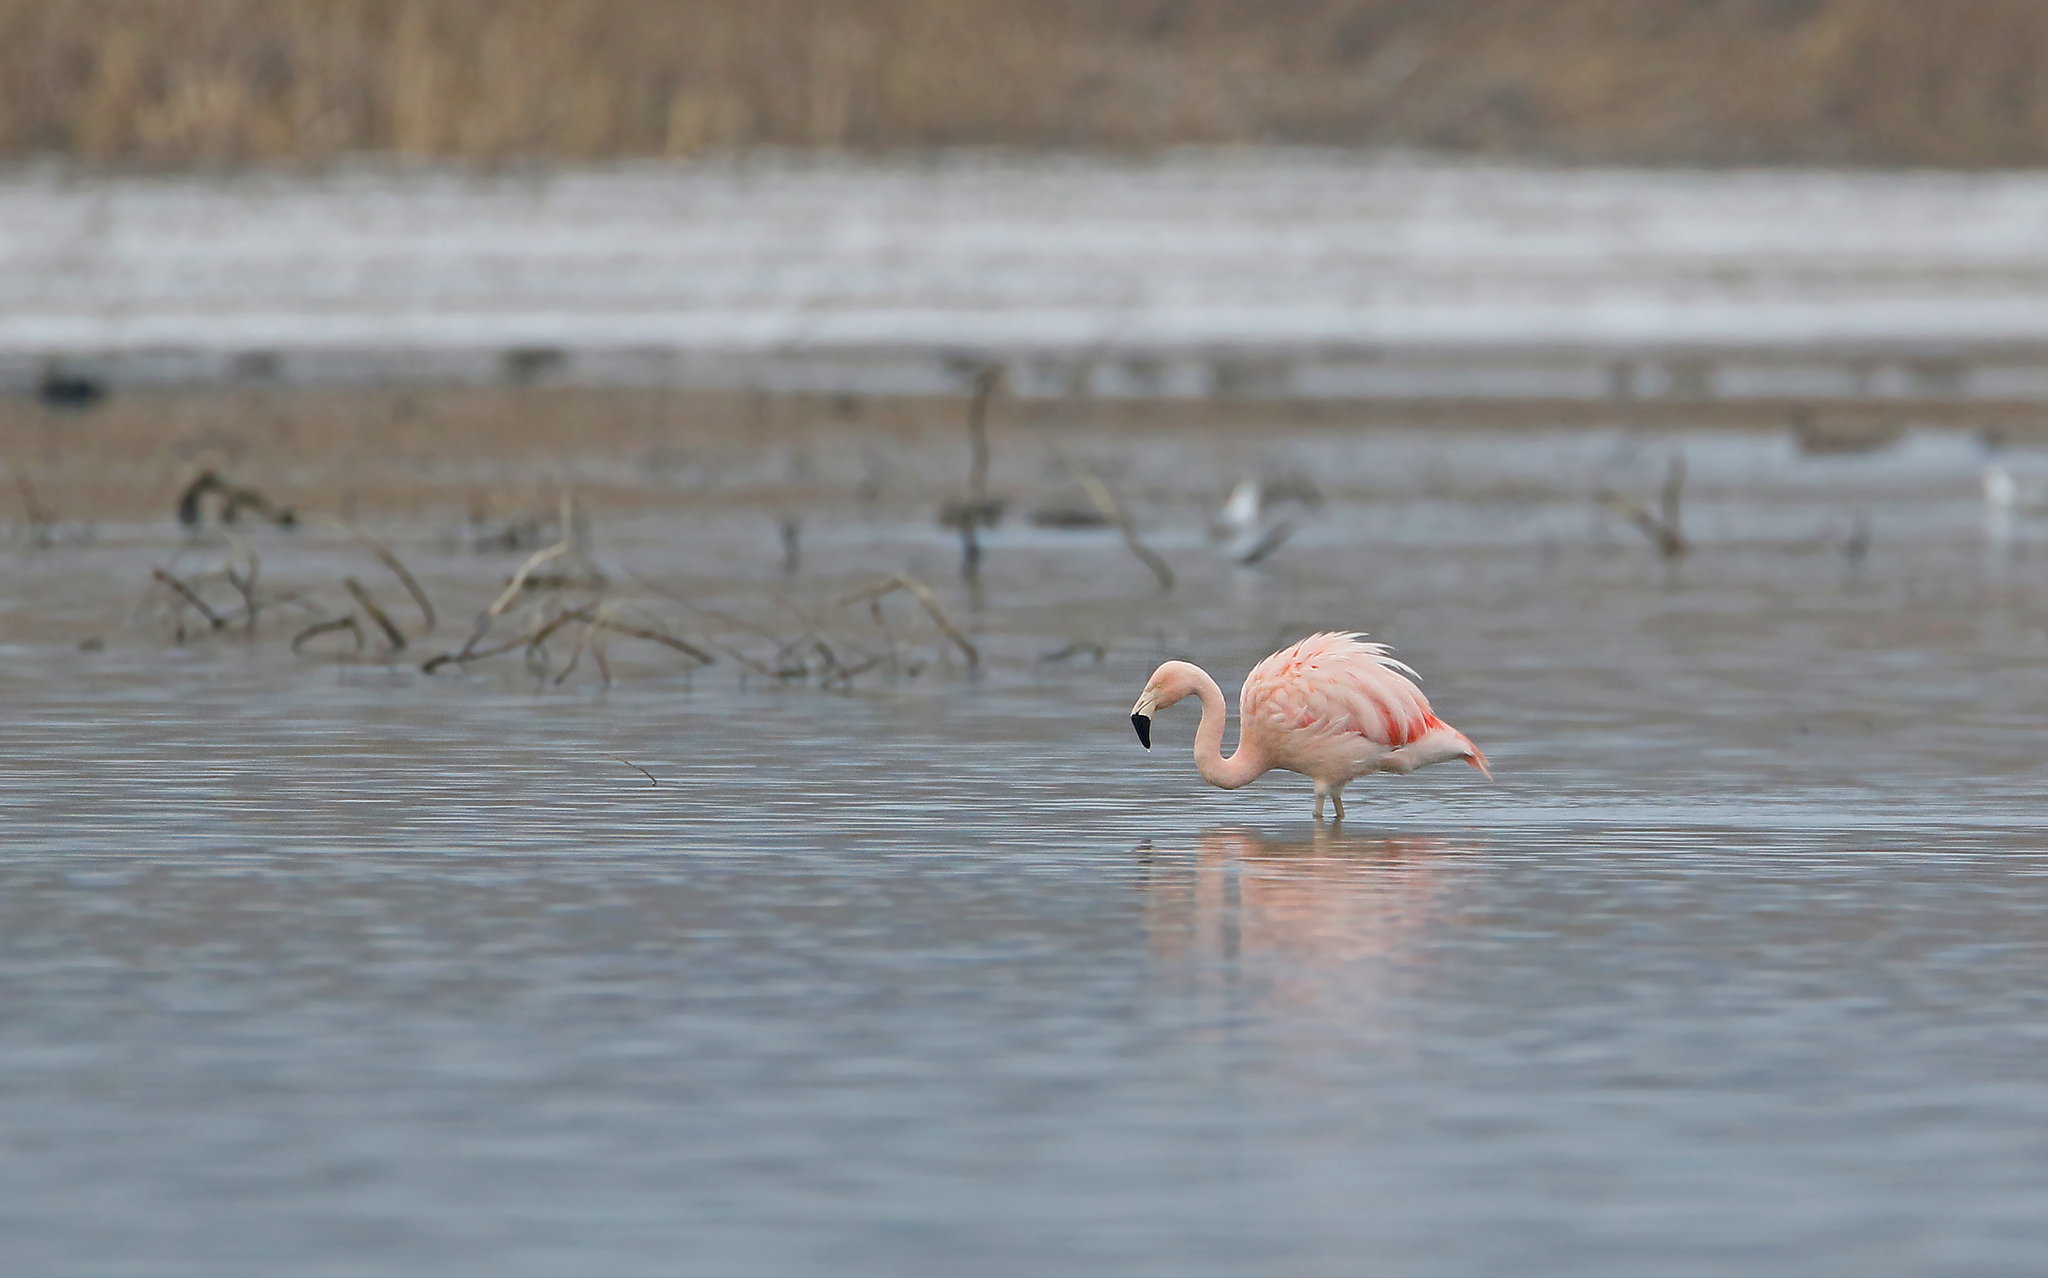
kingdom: Animalia
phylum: Chordata
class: Aves
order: Phoenicopteriformes
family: Phoenicopteridae
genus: Phoenicopterus
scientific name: Phoenicopterus chilensis
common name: Chilean flamingo
